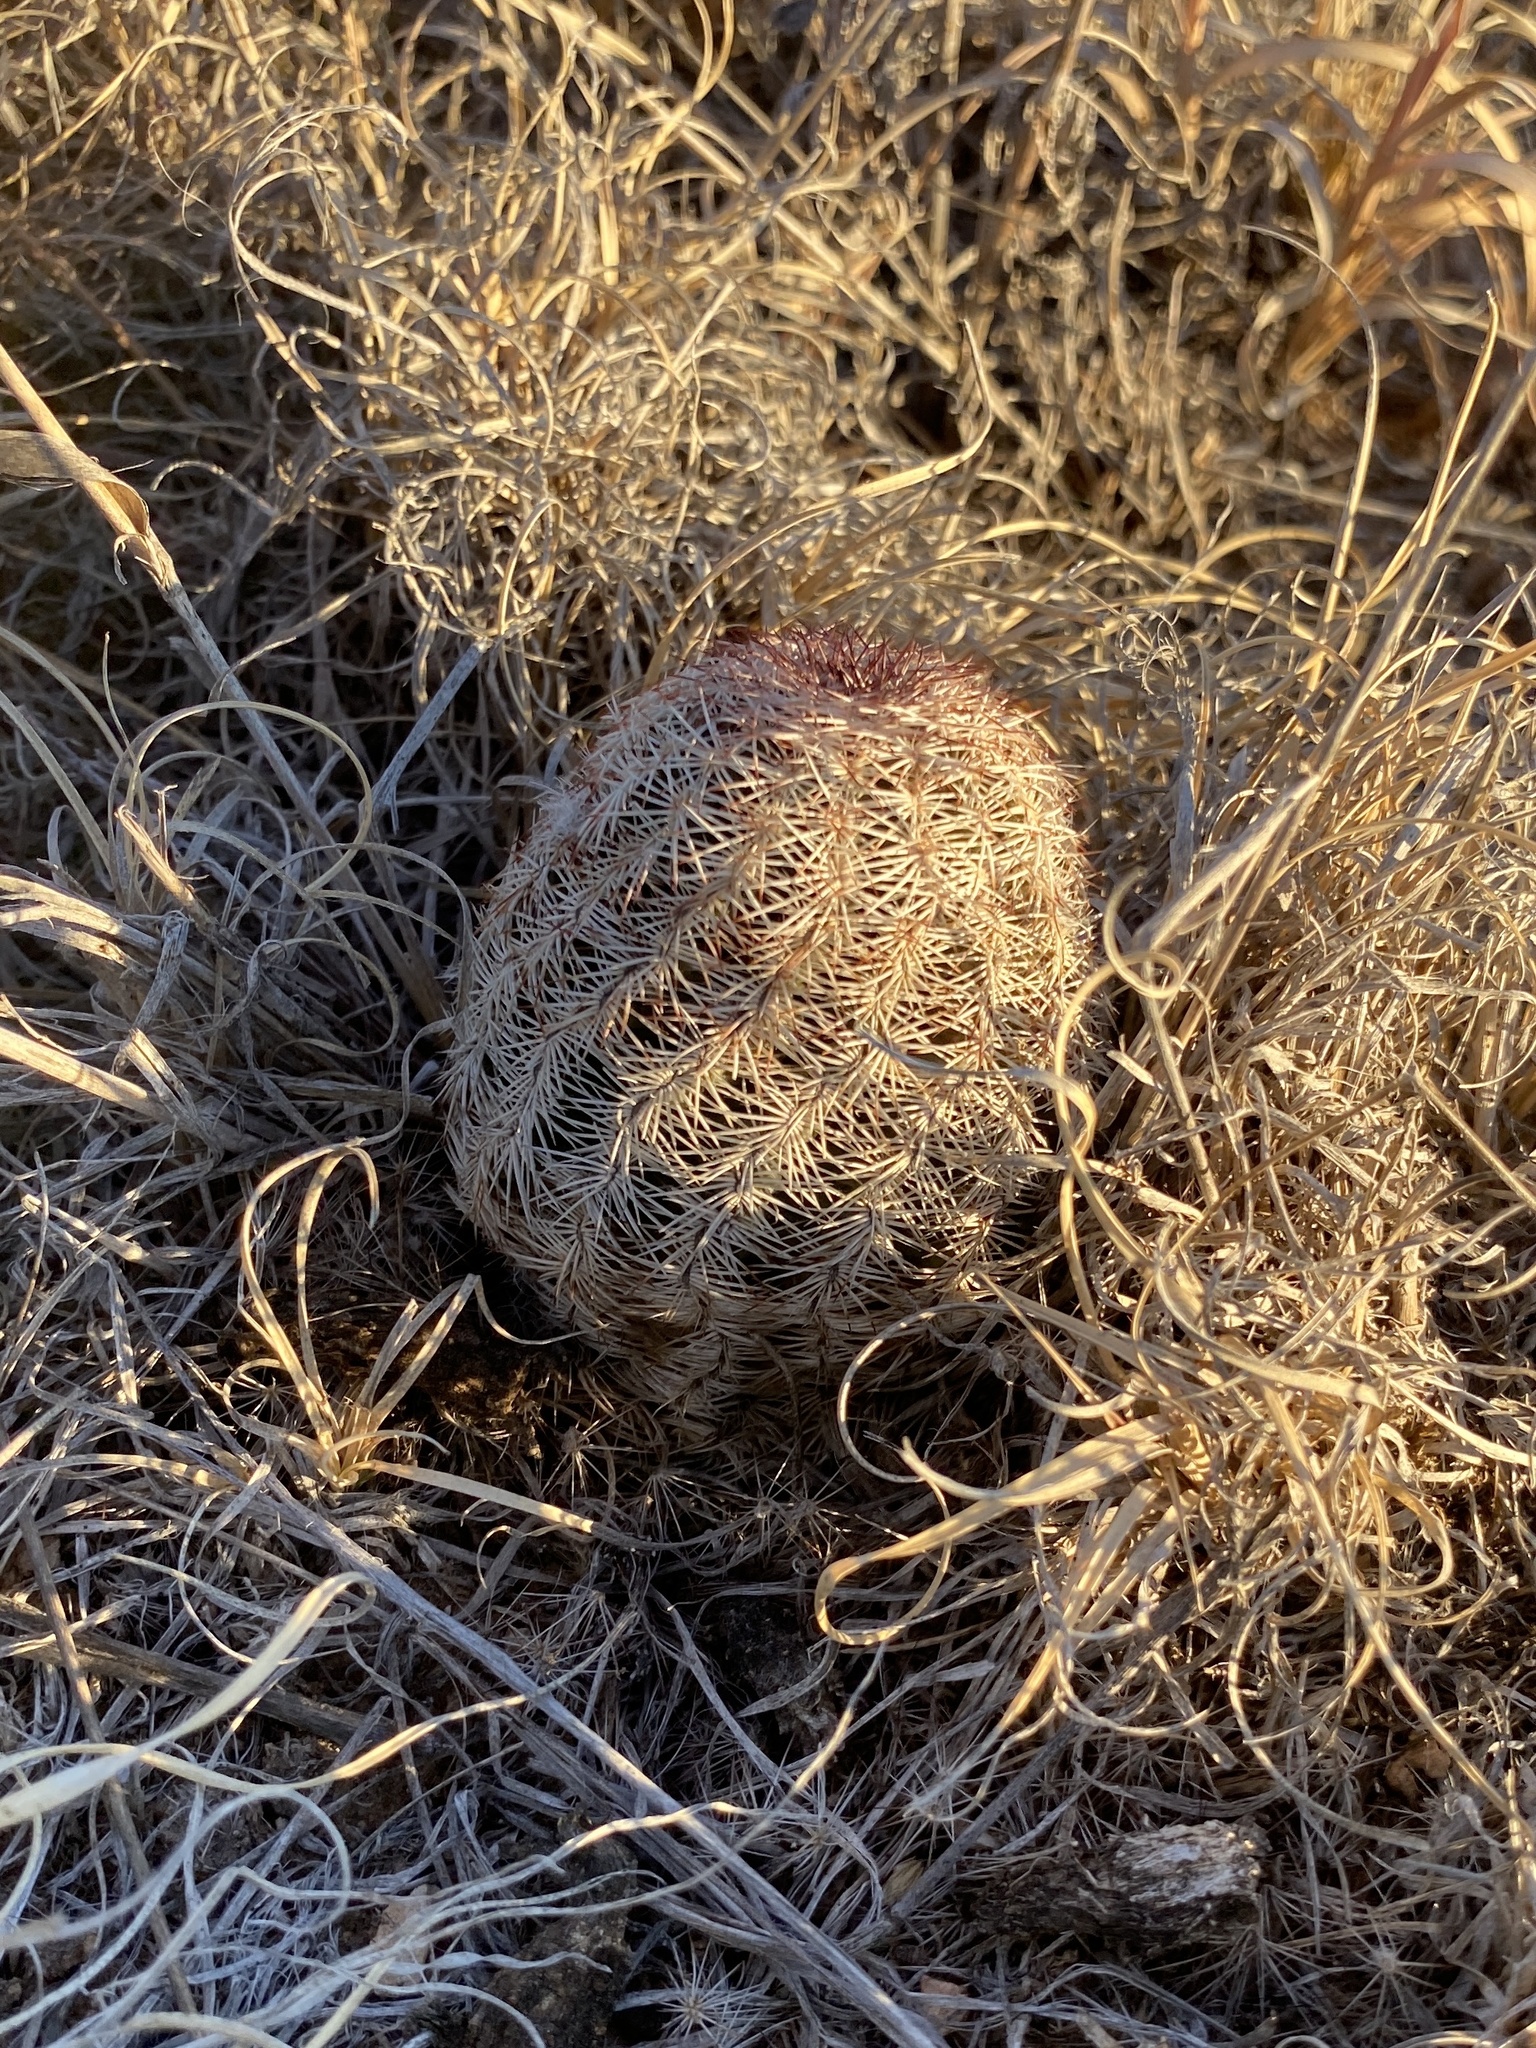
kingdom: Plantae
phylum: Tracheophyta
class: Magnoliopsida
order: Caryophyllales
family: Cactaceae
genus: Echinocereus
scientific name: Echinocereus reichenbachii
